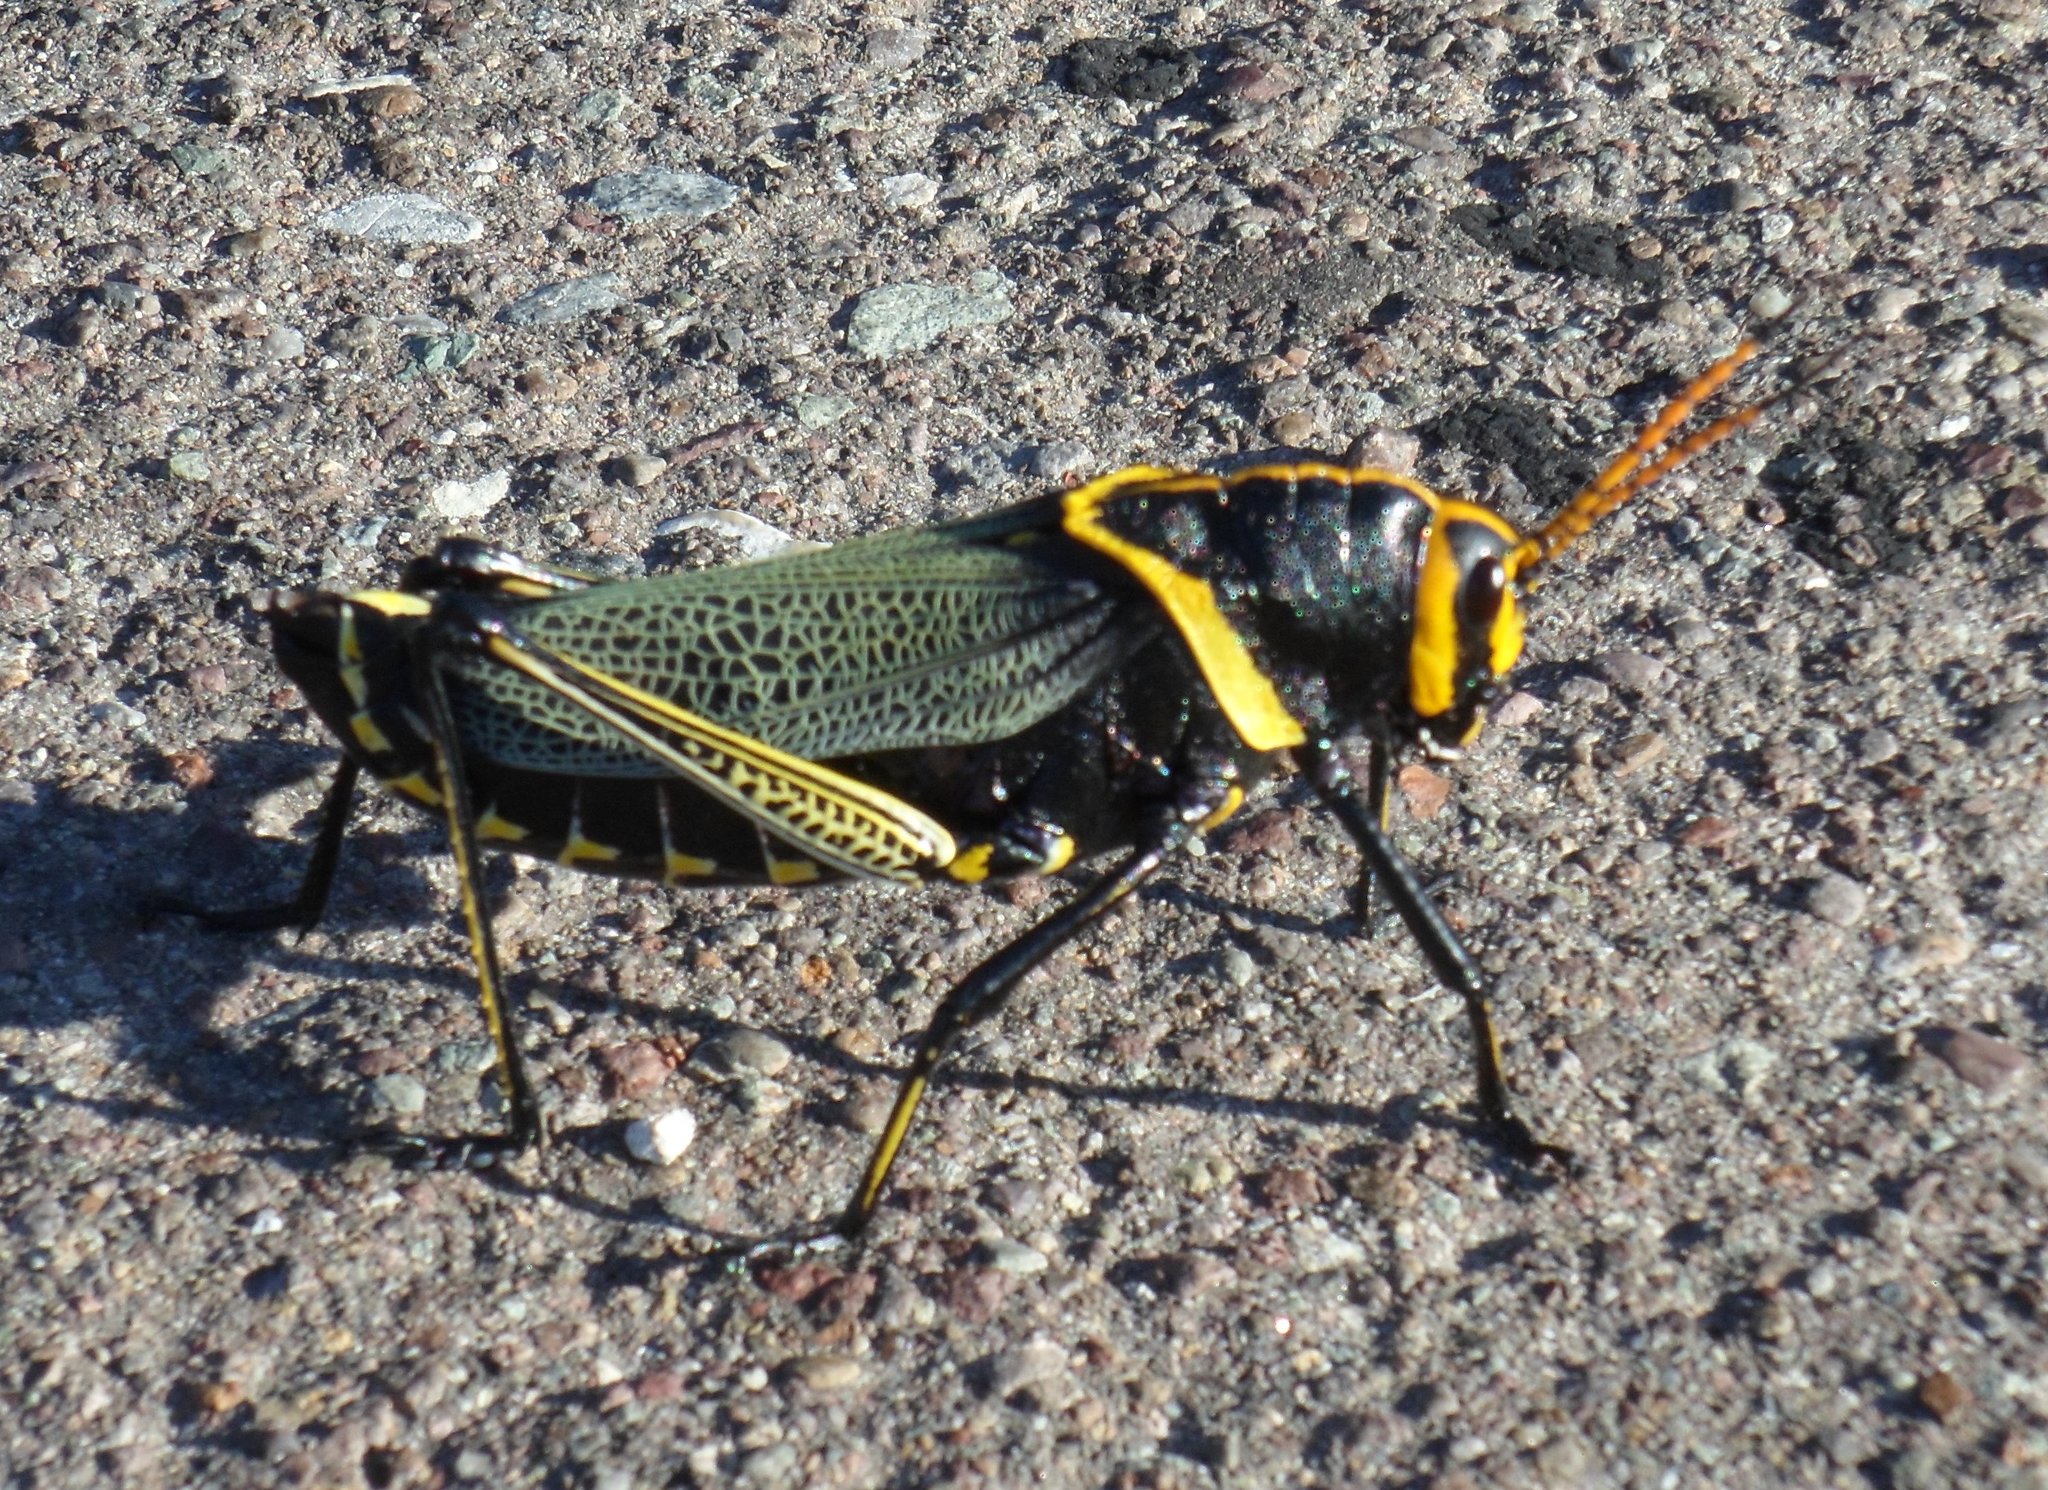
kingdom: Animalia
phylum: Arthropoda
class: Insecta
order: Orthoptera
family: Romaleidae
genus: Romalea
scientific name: Romalea
